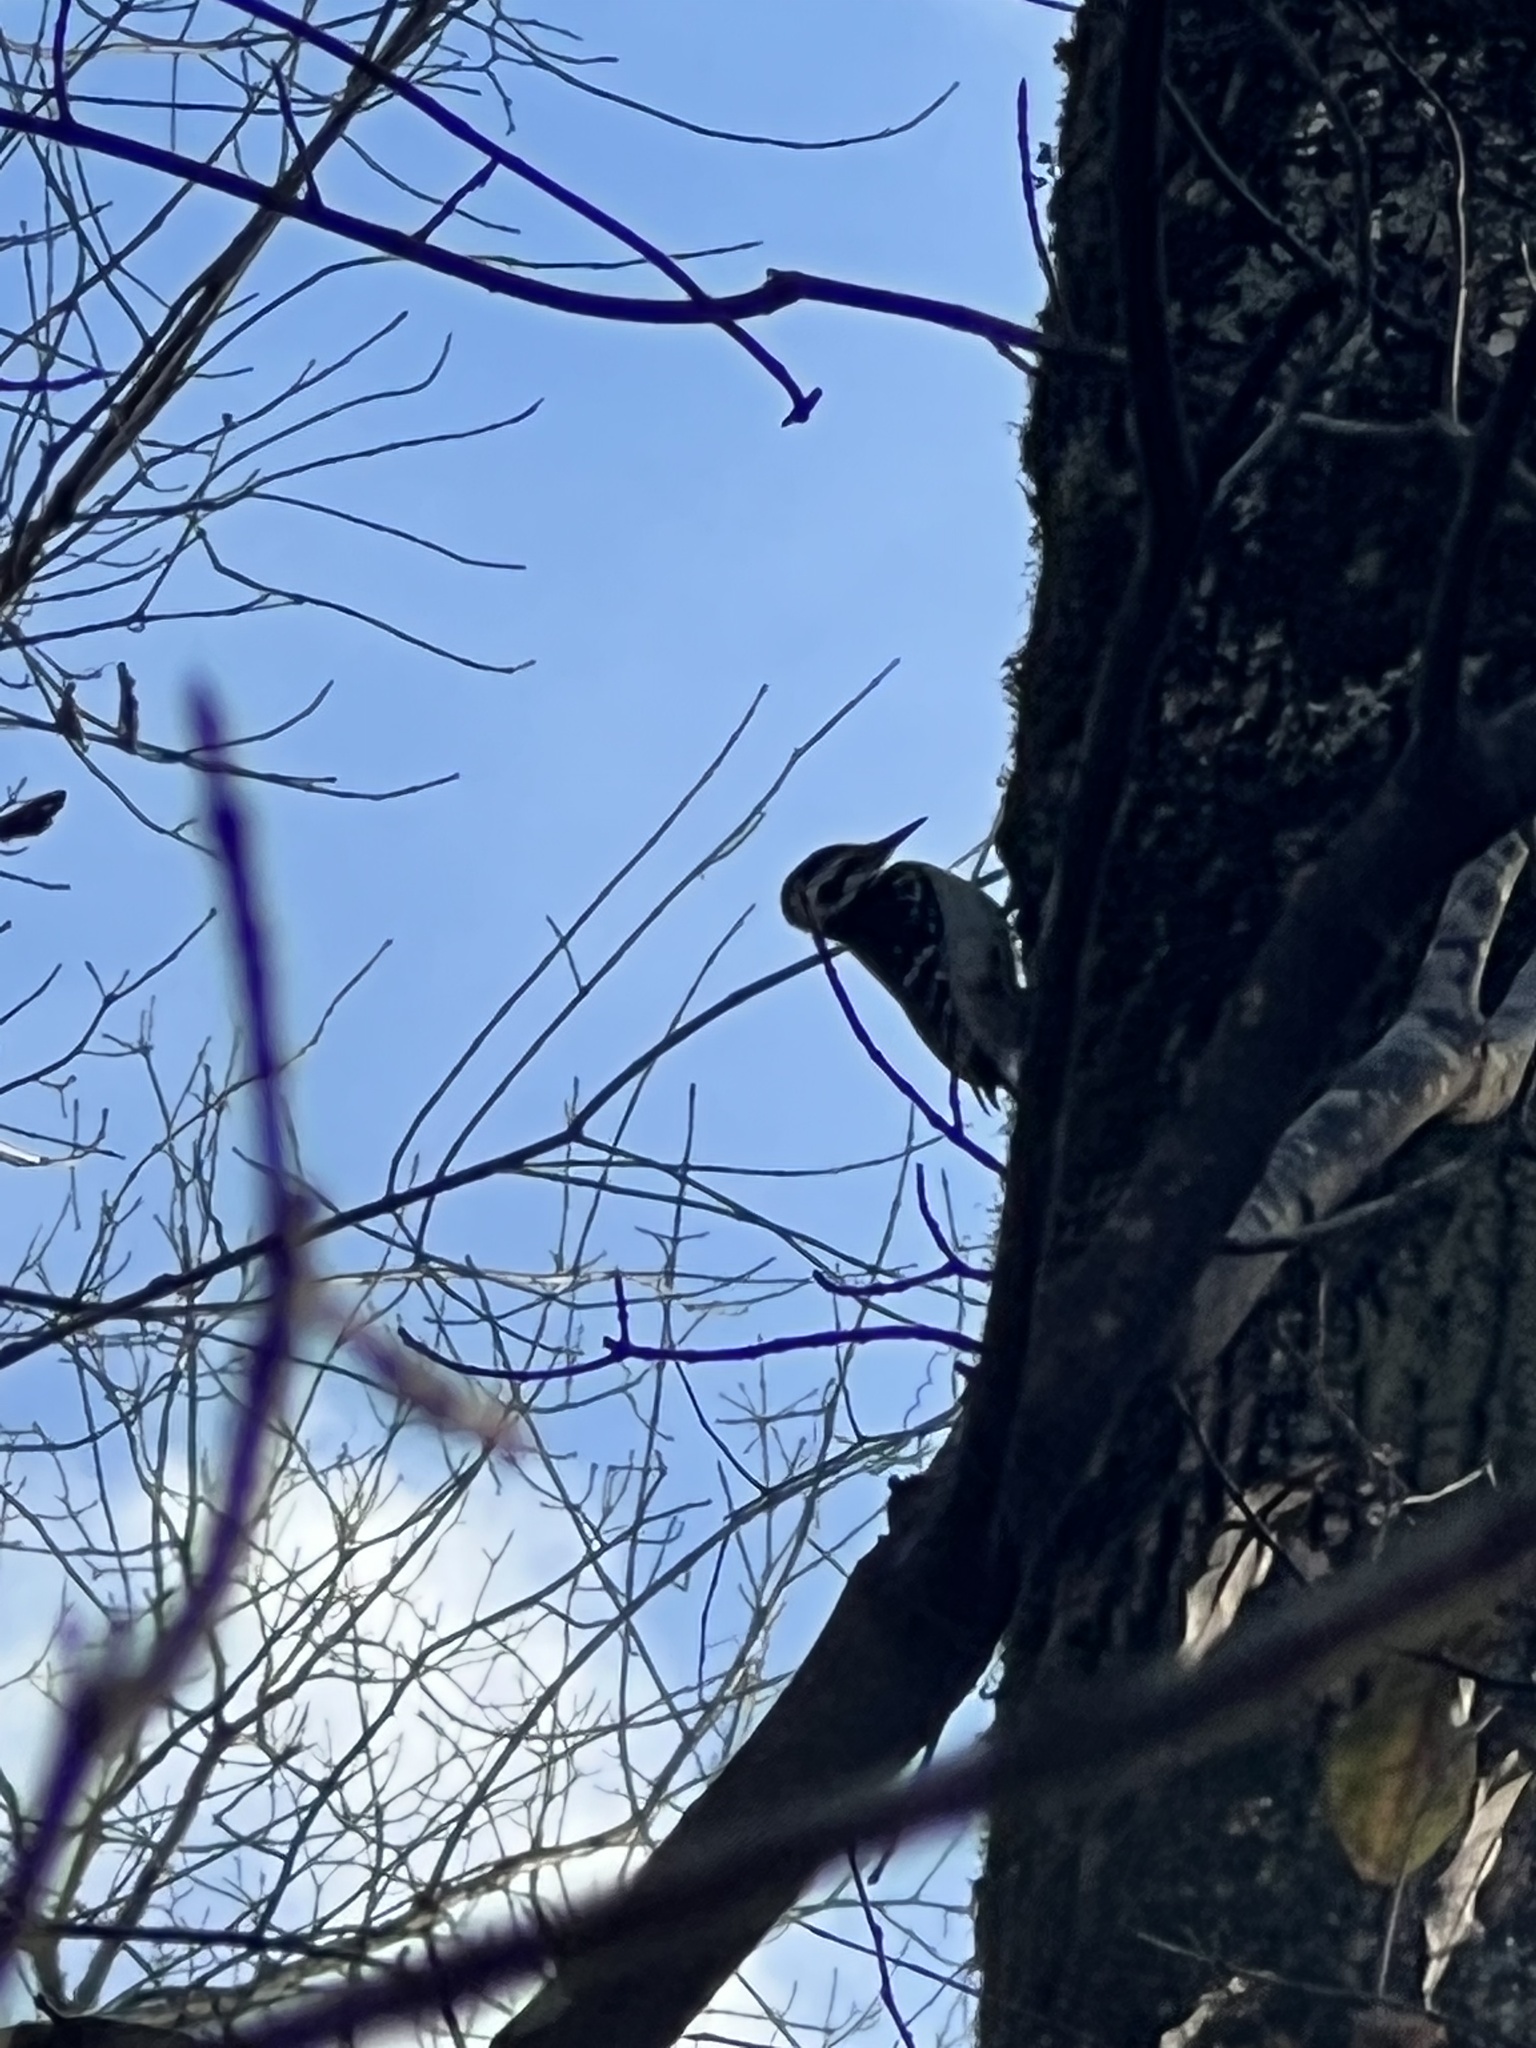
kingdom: Animalia
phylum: Chordata
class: Aves
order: Piciformes
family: Picidae
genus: Leuconotopicus
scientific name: Leuconotopicus villosus
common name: Hairy woodpecker
